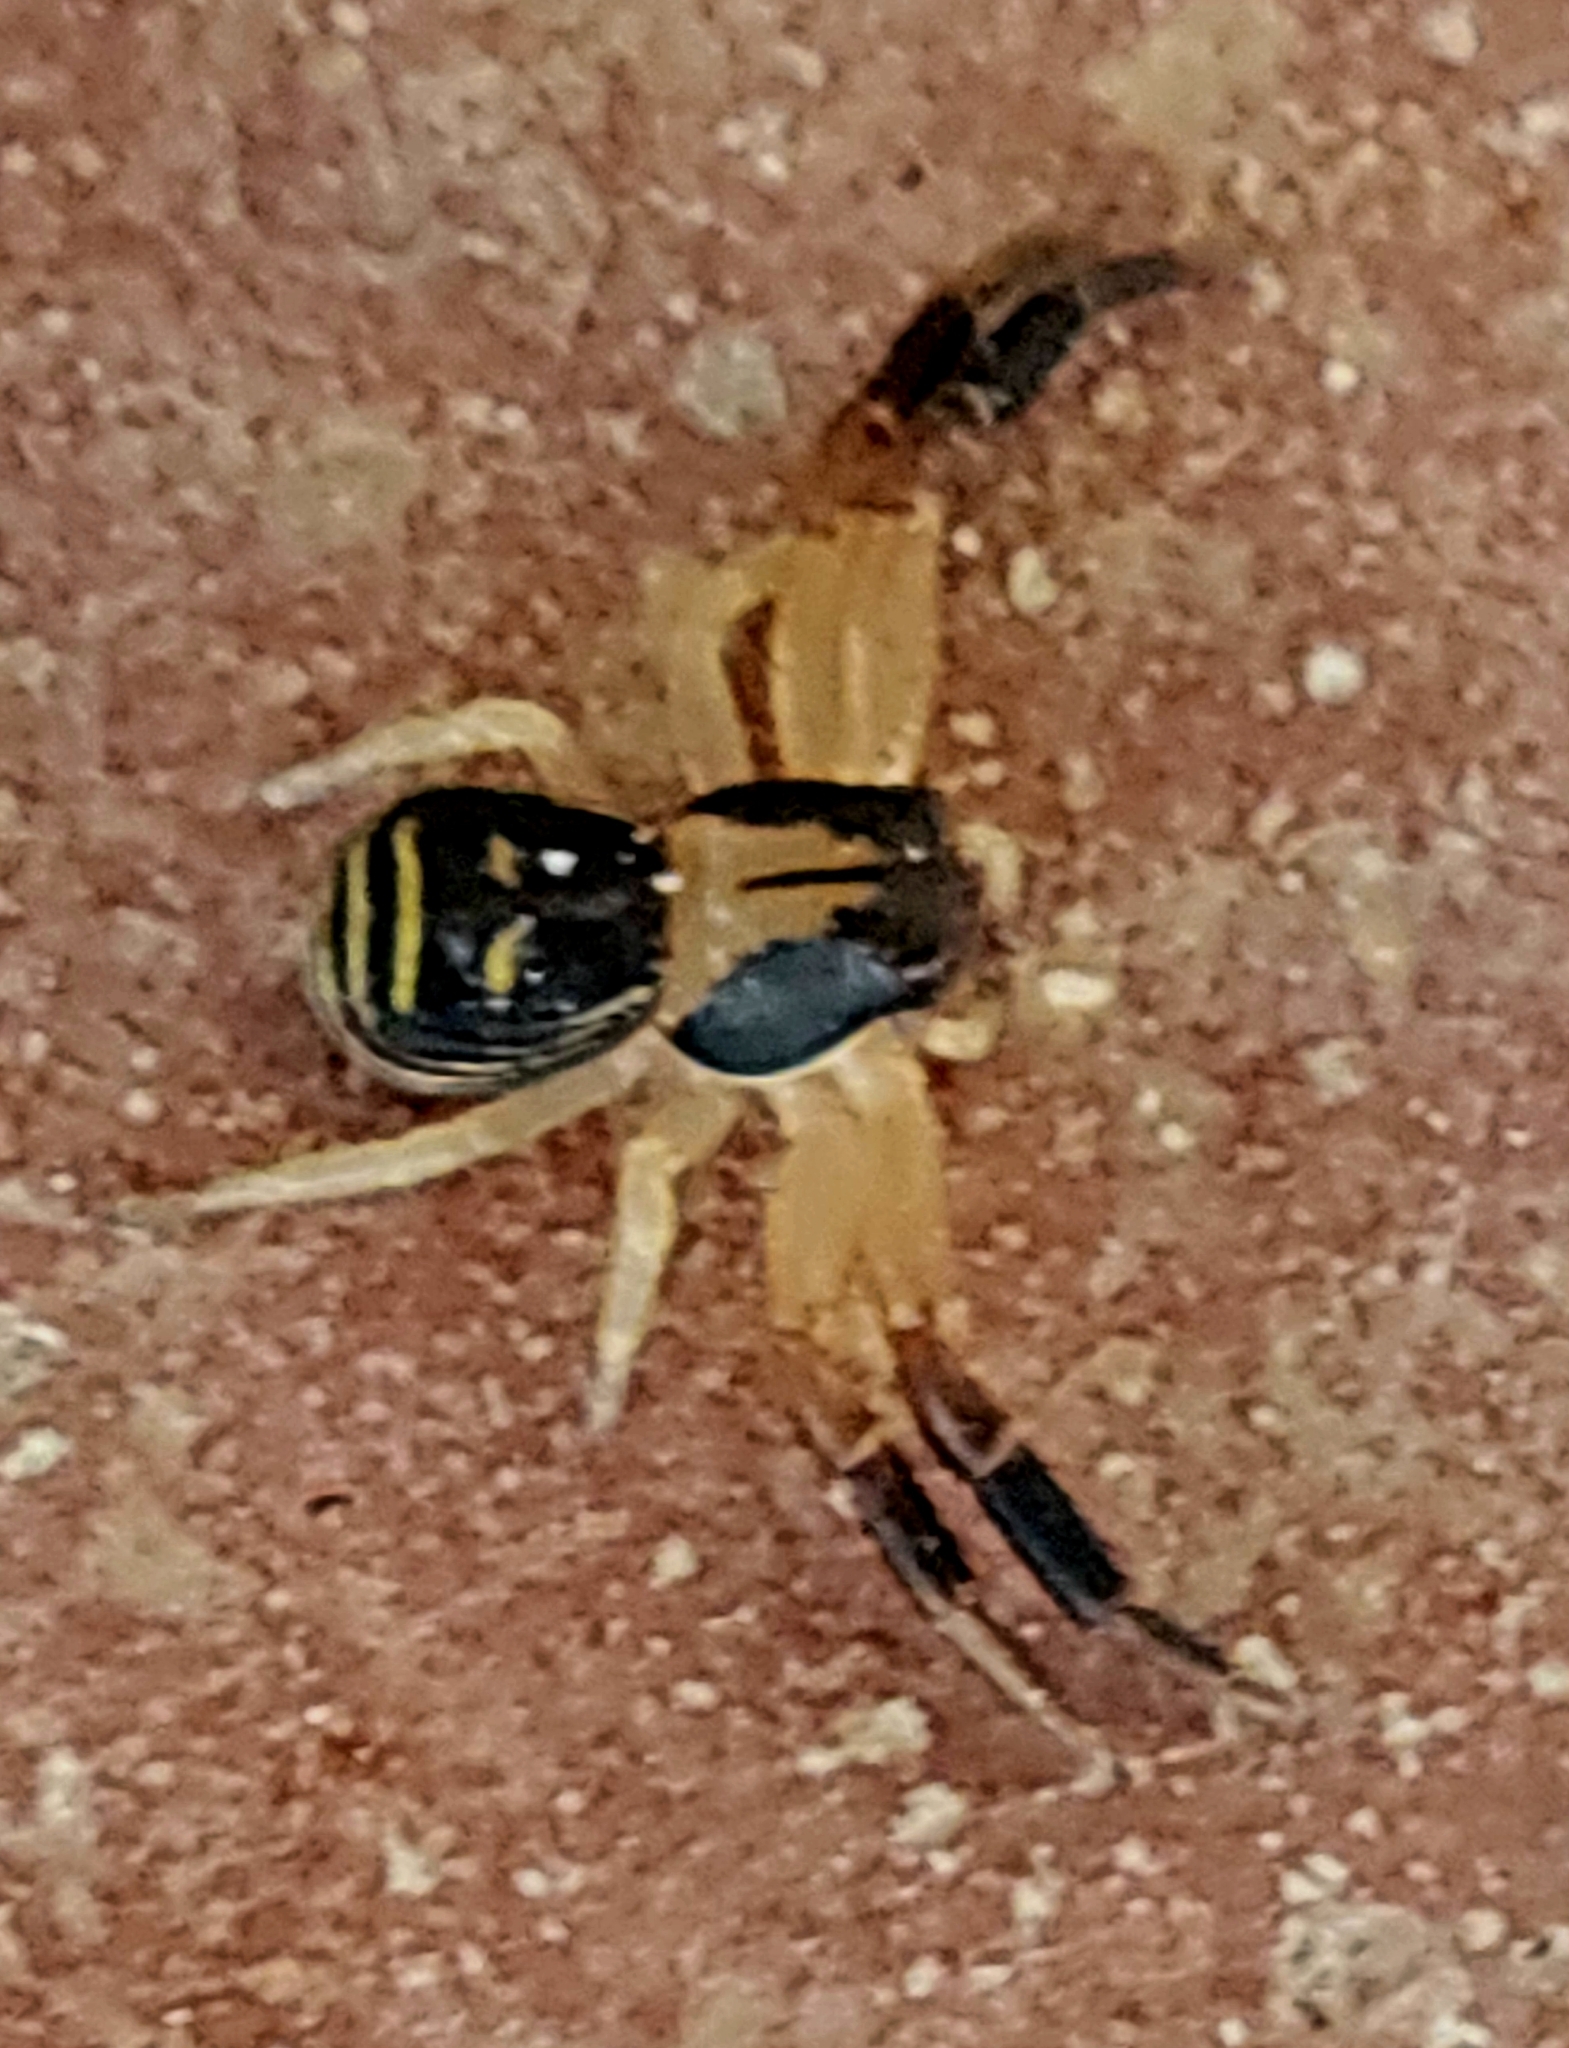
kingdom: Animalia
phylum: Arthropoda
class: Arachnida
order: Araneae
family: Thomisidae
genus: Xysticus
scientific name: Xysticus texanus
